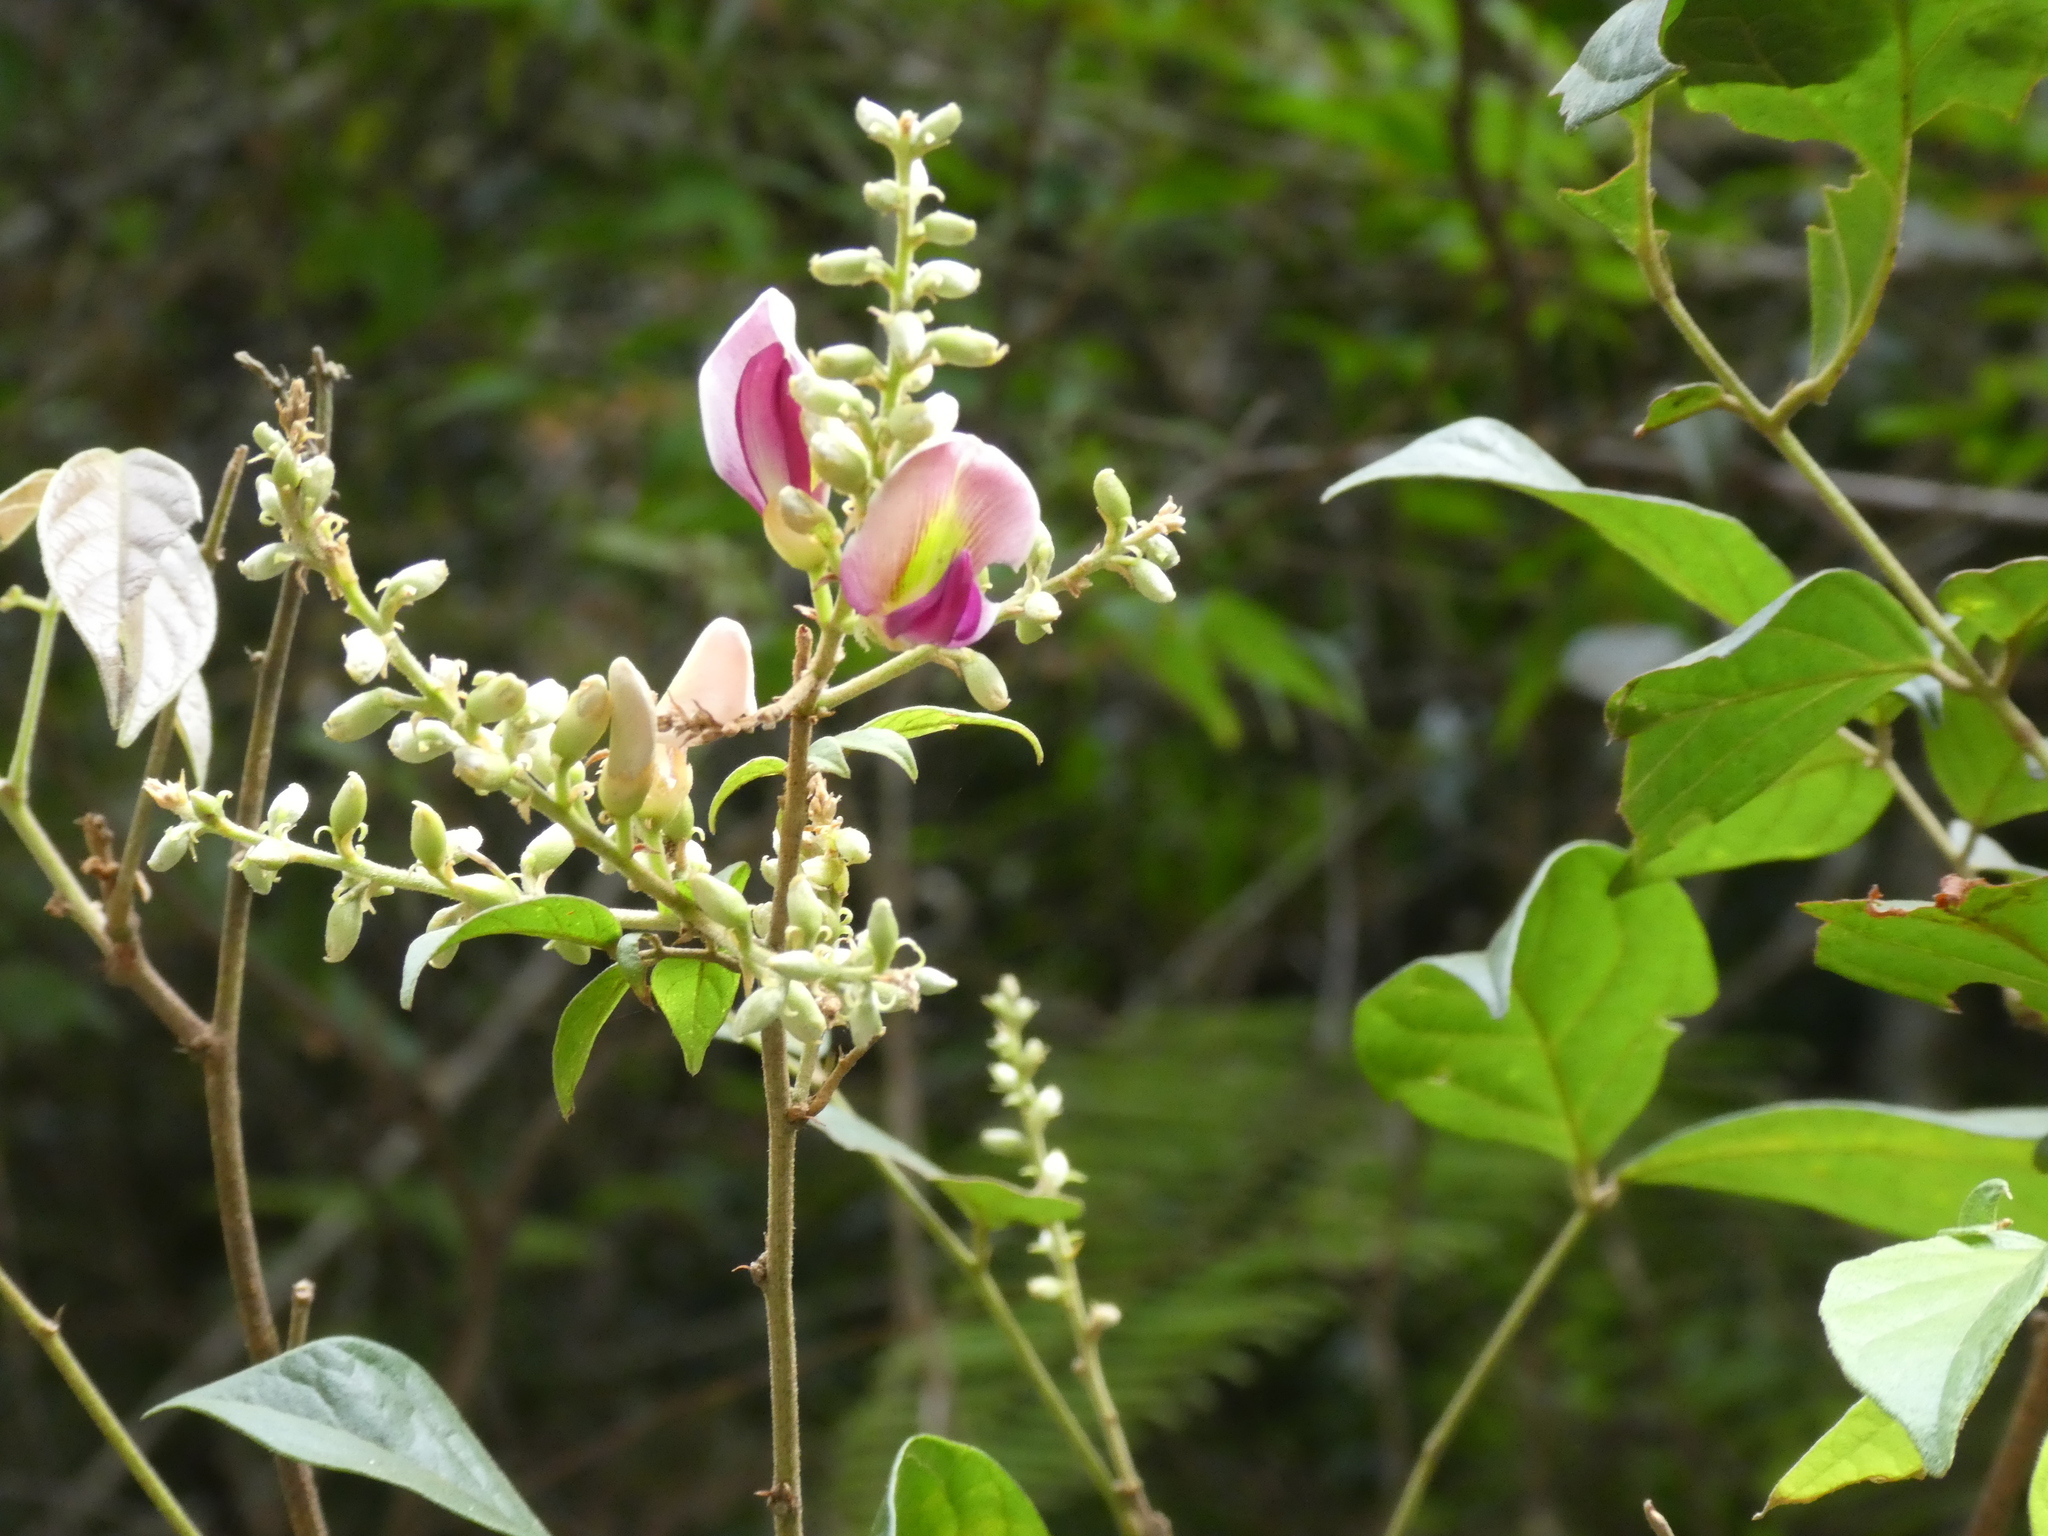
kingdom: Plantae
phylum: Tracheophyta
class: Magnoliopsida
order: Fabales
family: Fabaceae
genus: Callerya
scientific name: Callerya dielsiana
